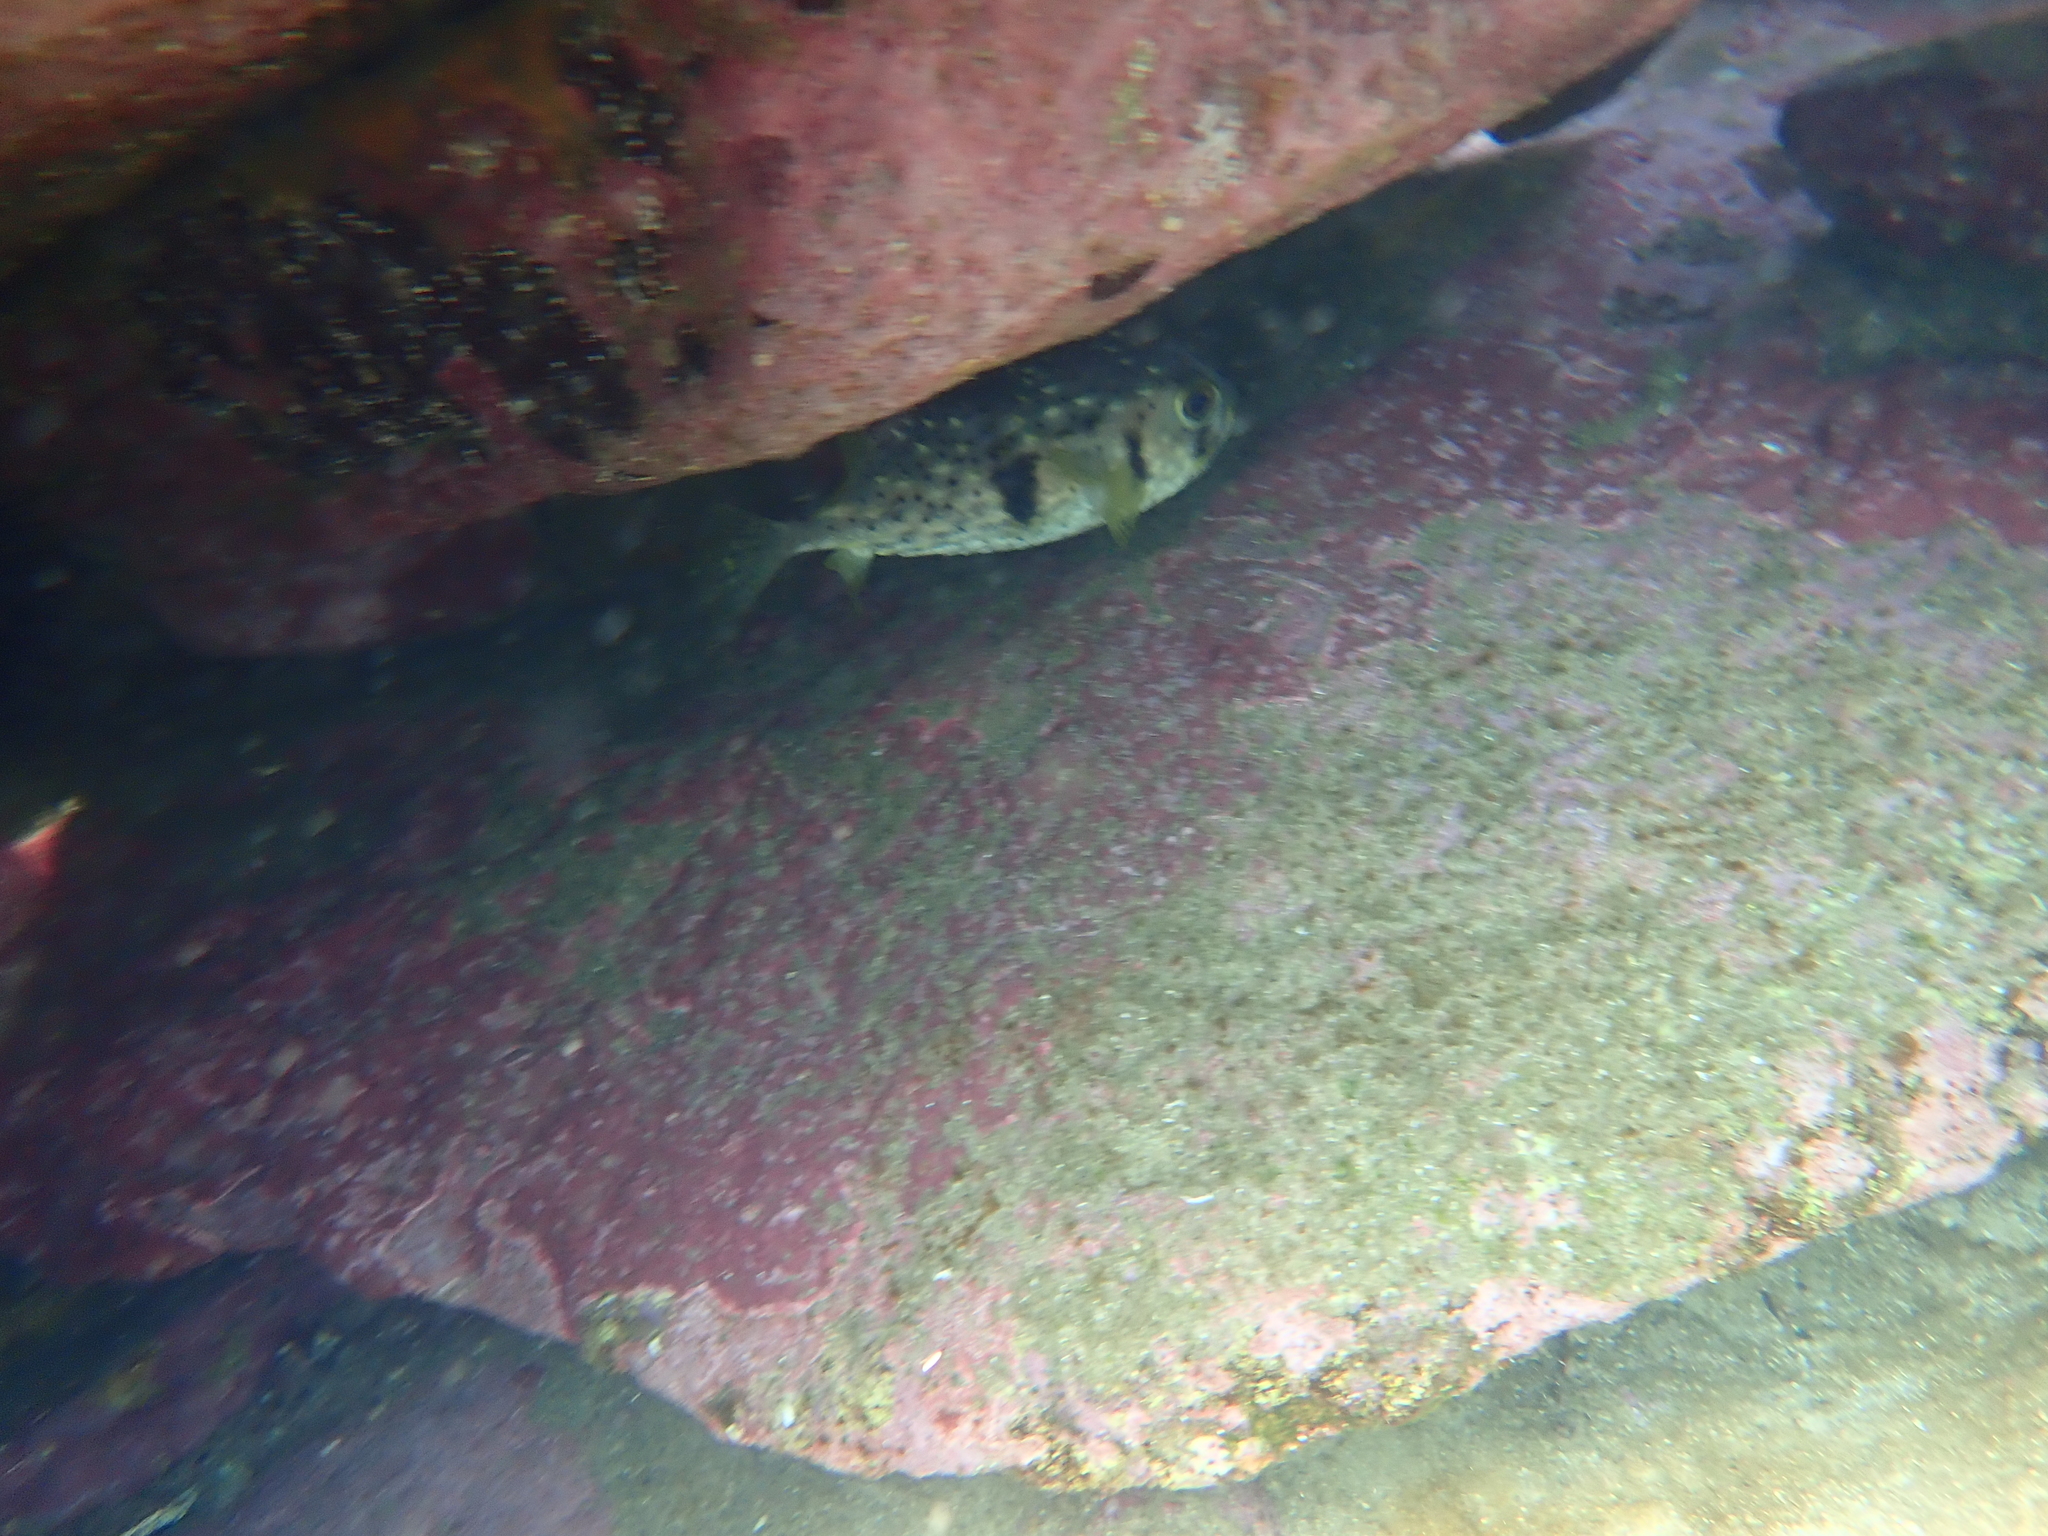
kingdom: Animalia
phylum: Chordata
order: Tetraodontiformes
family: Diodontidae
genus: Dicotylichthys
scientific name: Dicotylichthys punctulatus
